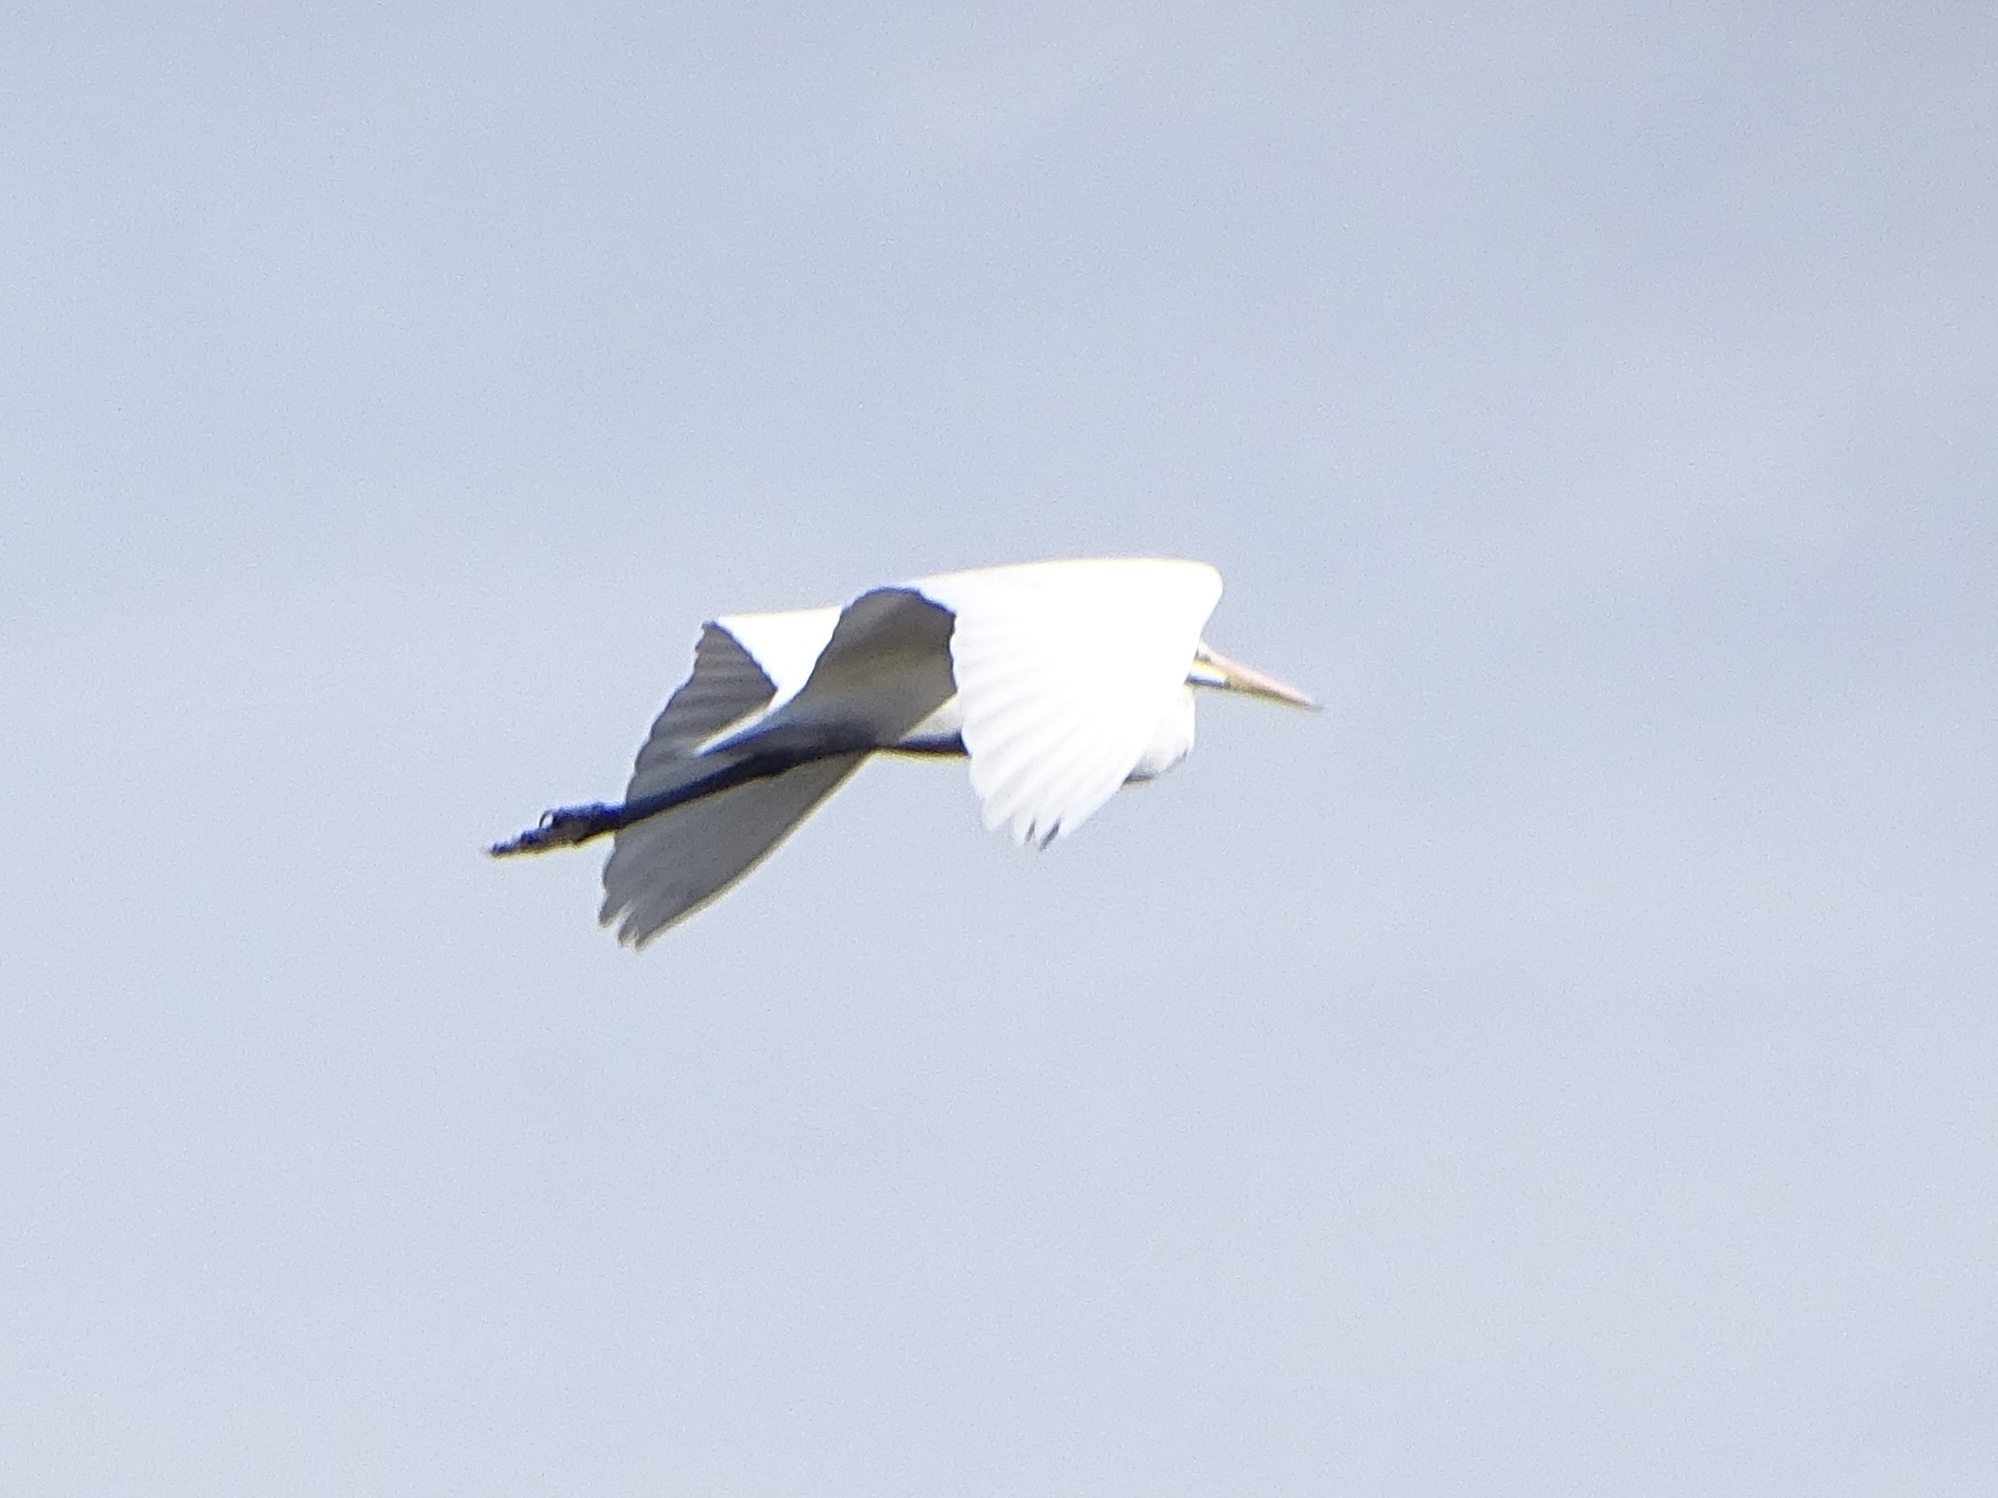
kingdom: Animalia
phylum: Chordata
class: Aves
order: Pelecaniformes
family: Ardeidae
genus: Ardea
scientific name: Ardea alba
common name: Great egret
